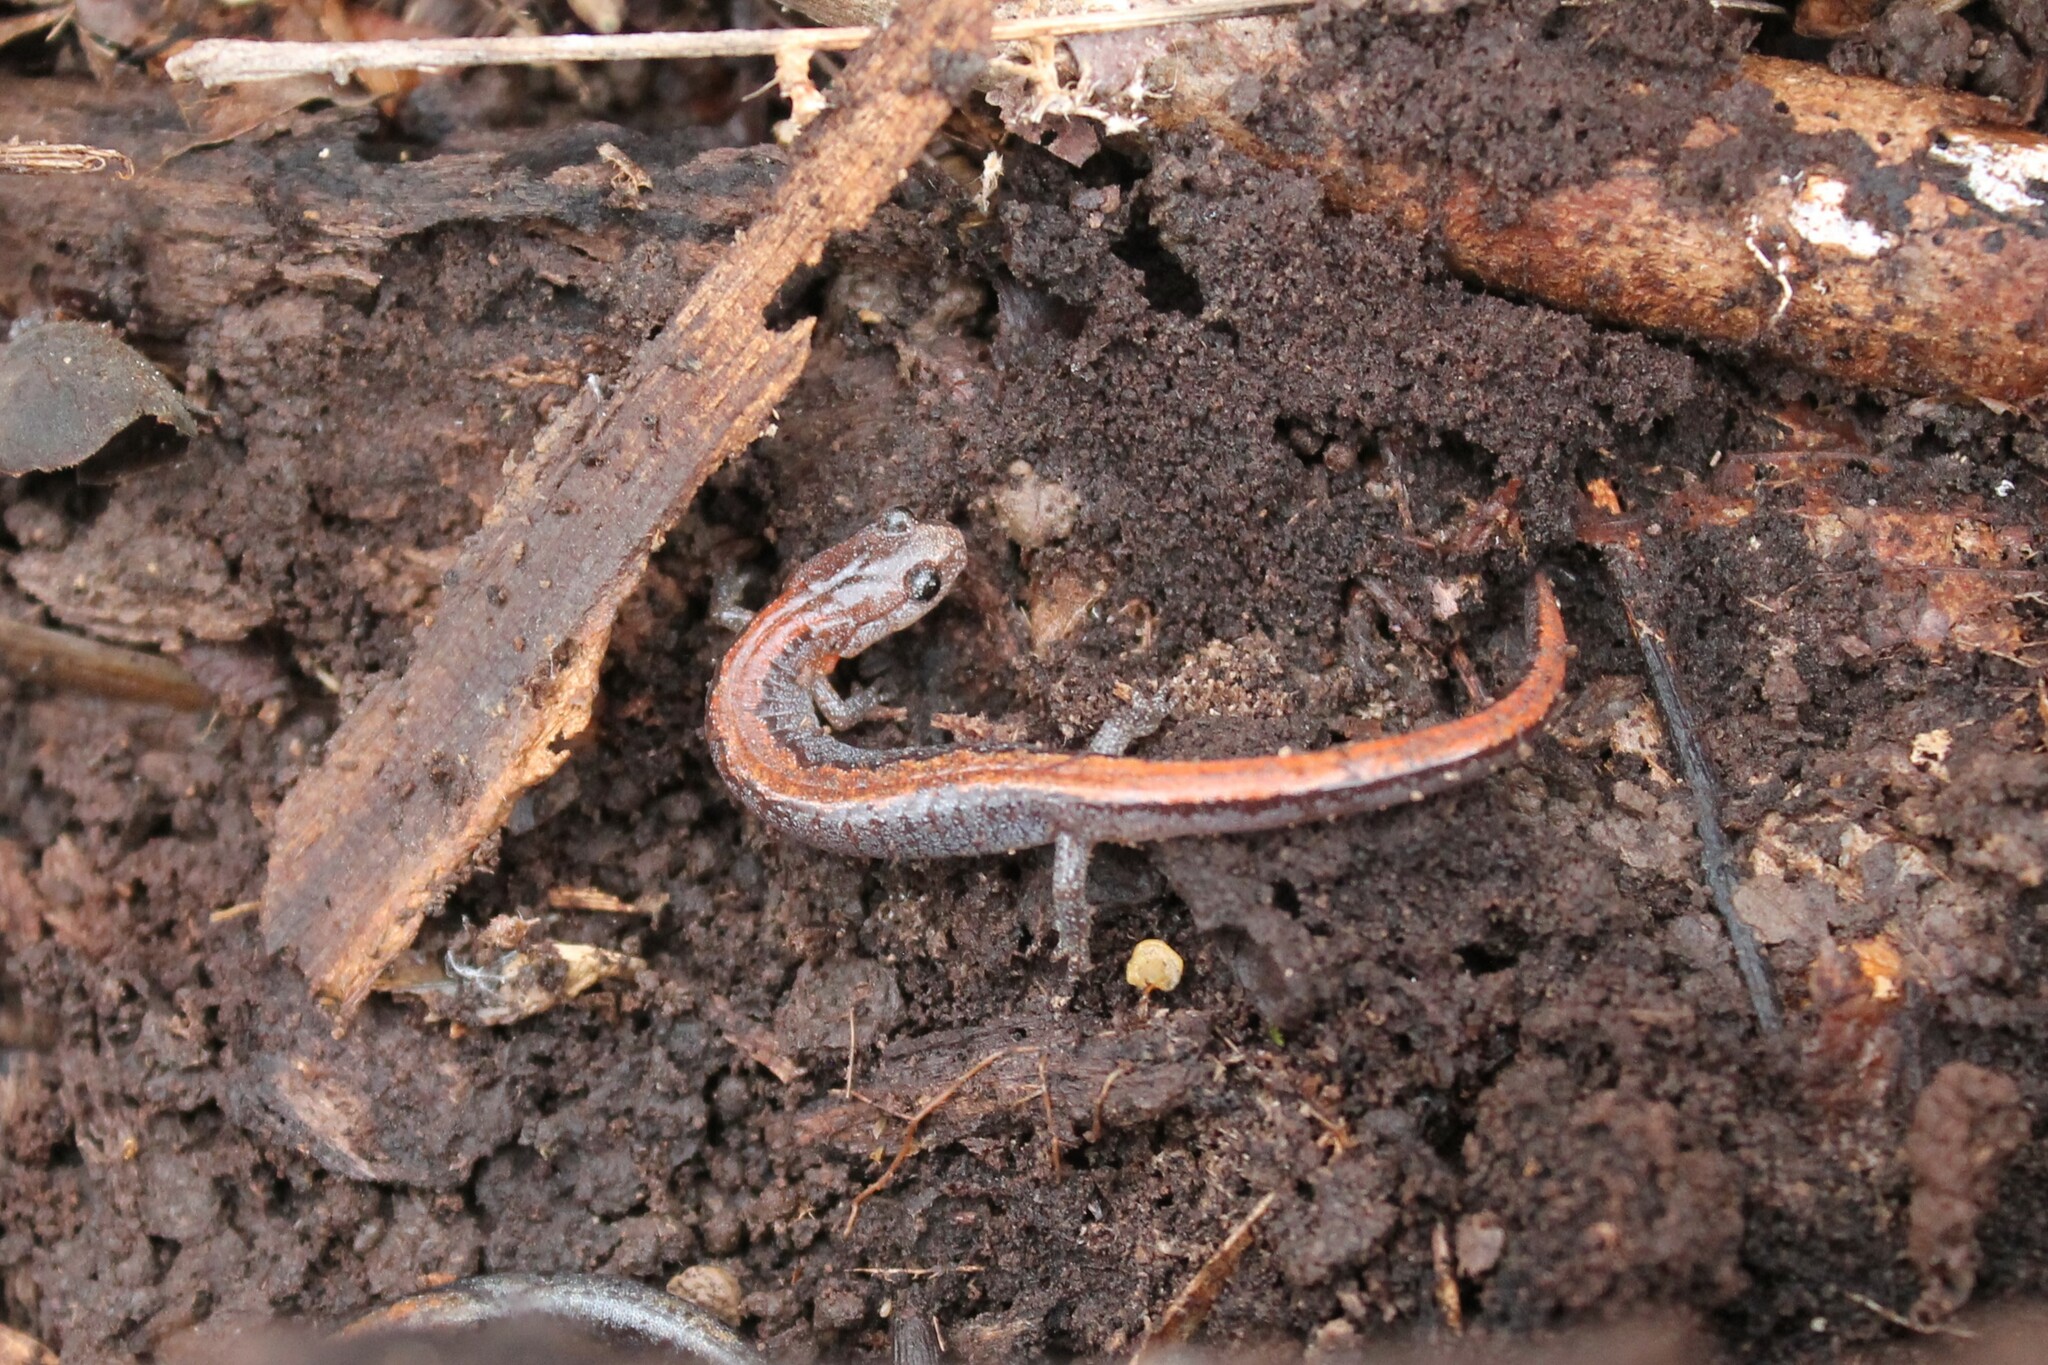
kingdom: Animalia
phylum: Chordata
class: Amphibia
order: Caudata
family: Plethodontidae
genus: Plethodon
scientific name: Plethodon dorsalis
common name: Northern zigzag salamander
